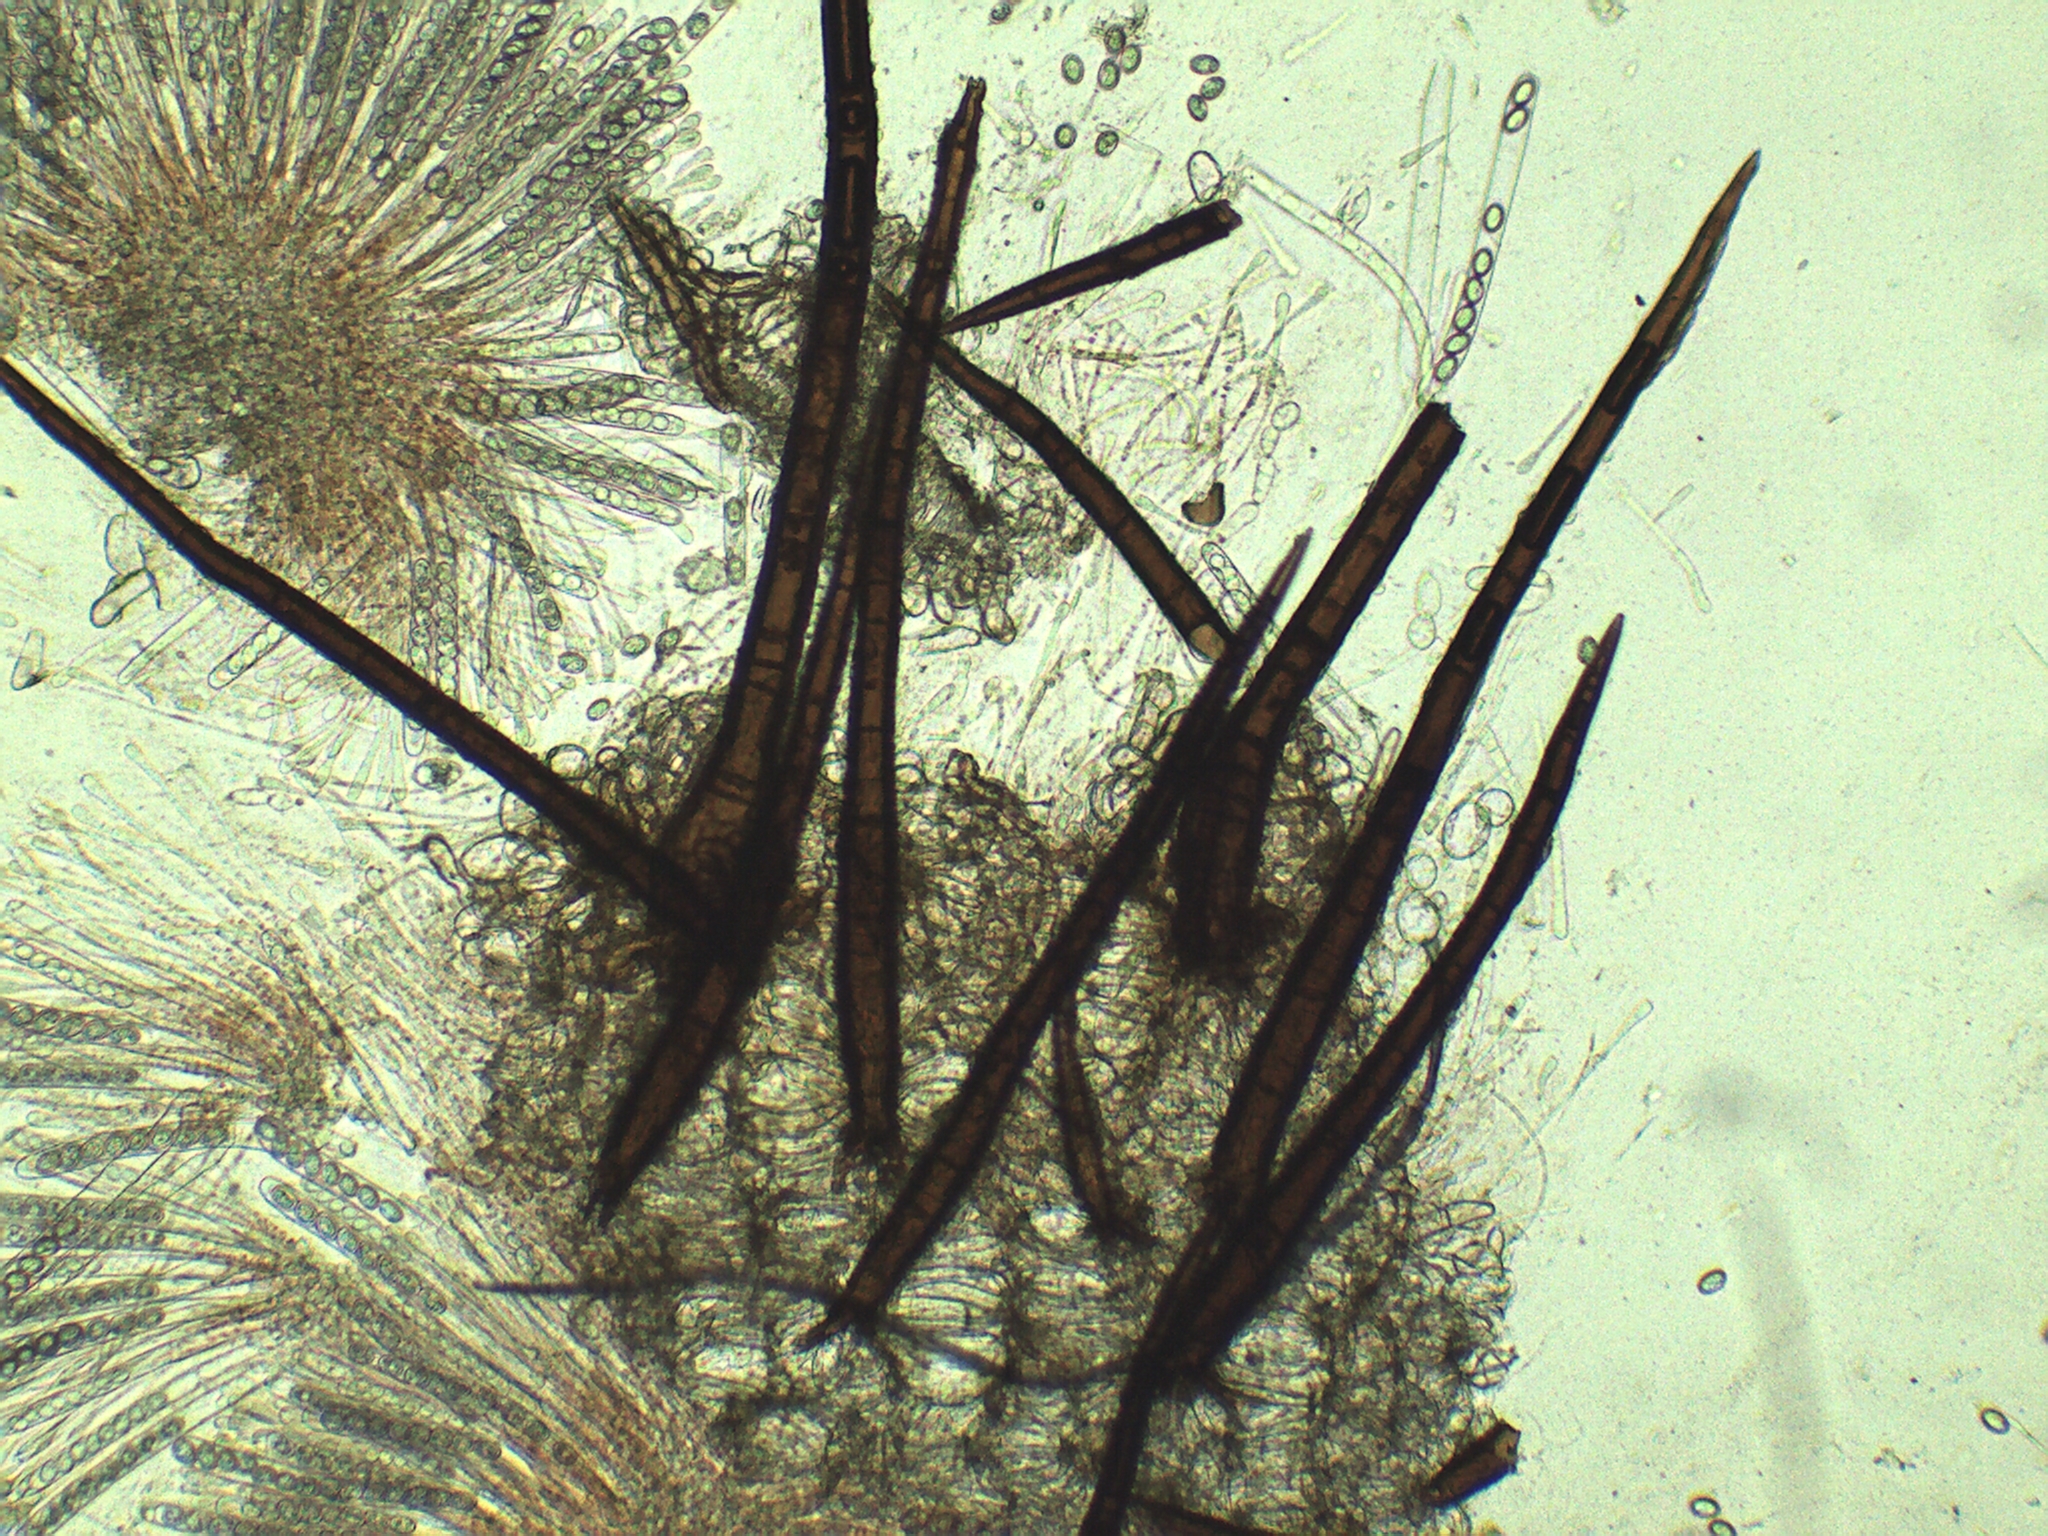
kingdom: Fungi
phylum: Ascomycota
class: Pezizomycetes
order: Pezizales
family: Pyronemataceae
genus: Scutellinia
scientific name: Scutellinia olivascens
